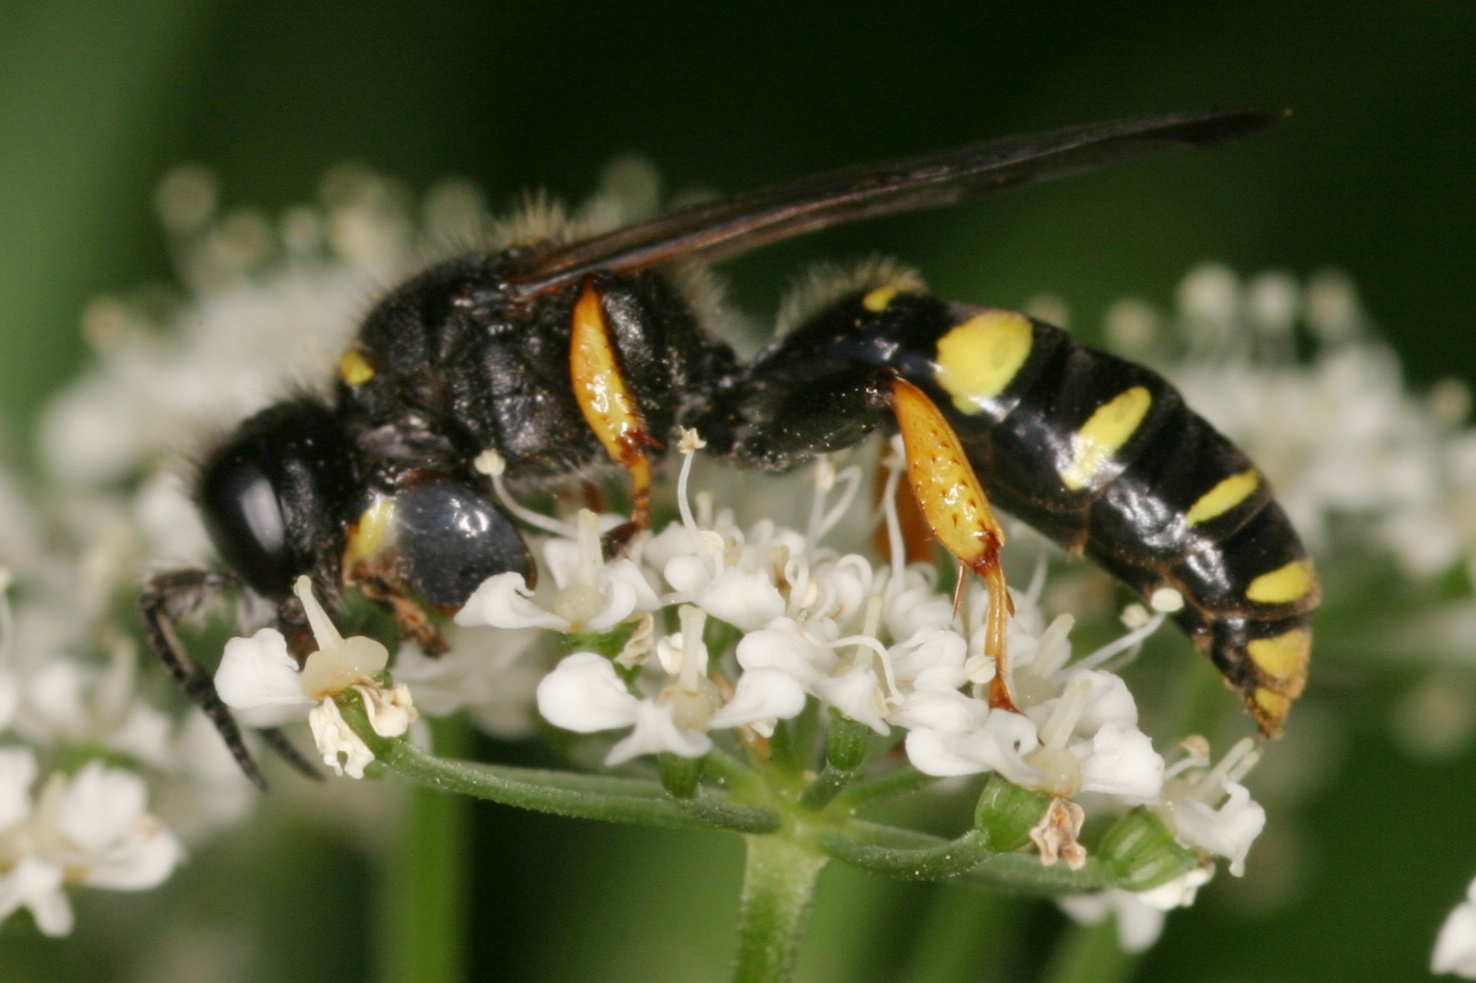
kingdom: Animalia
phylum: Arthropoda
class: Insecta
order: Hymenoptera
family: Crabronidae
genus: Crabro
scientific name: Crabro cribrarius
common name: Slender bodied digger wasp
